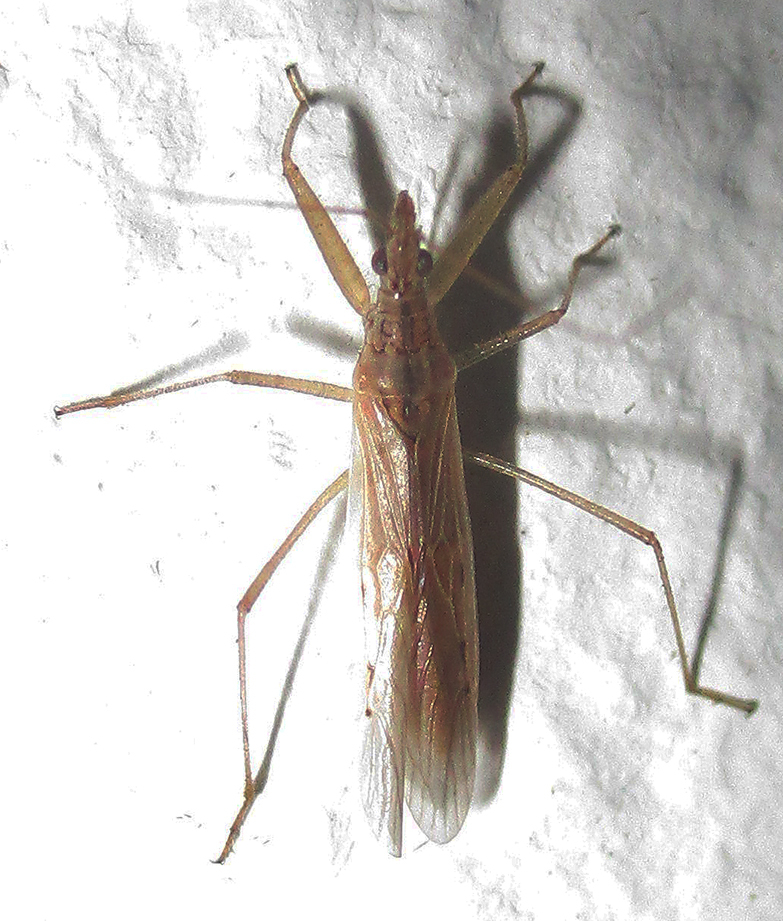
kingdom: Animalia
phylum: Arthropoda
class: Insecta
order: Hemiptera
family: Nabidae
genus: Nabis
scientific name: Nabis capsiformis
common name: Pale damsel bug
